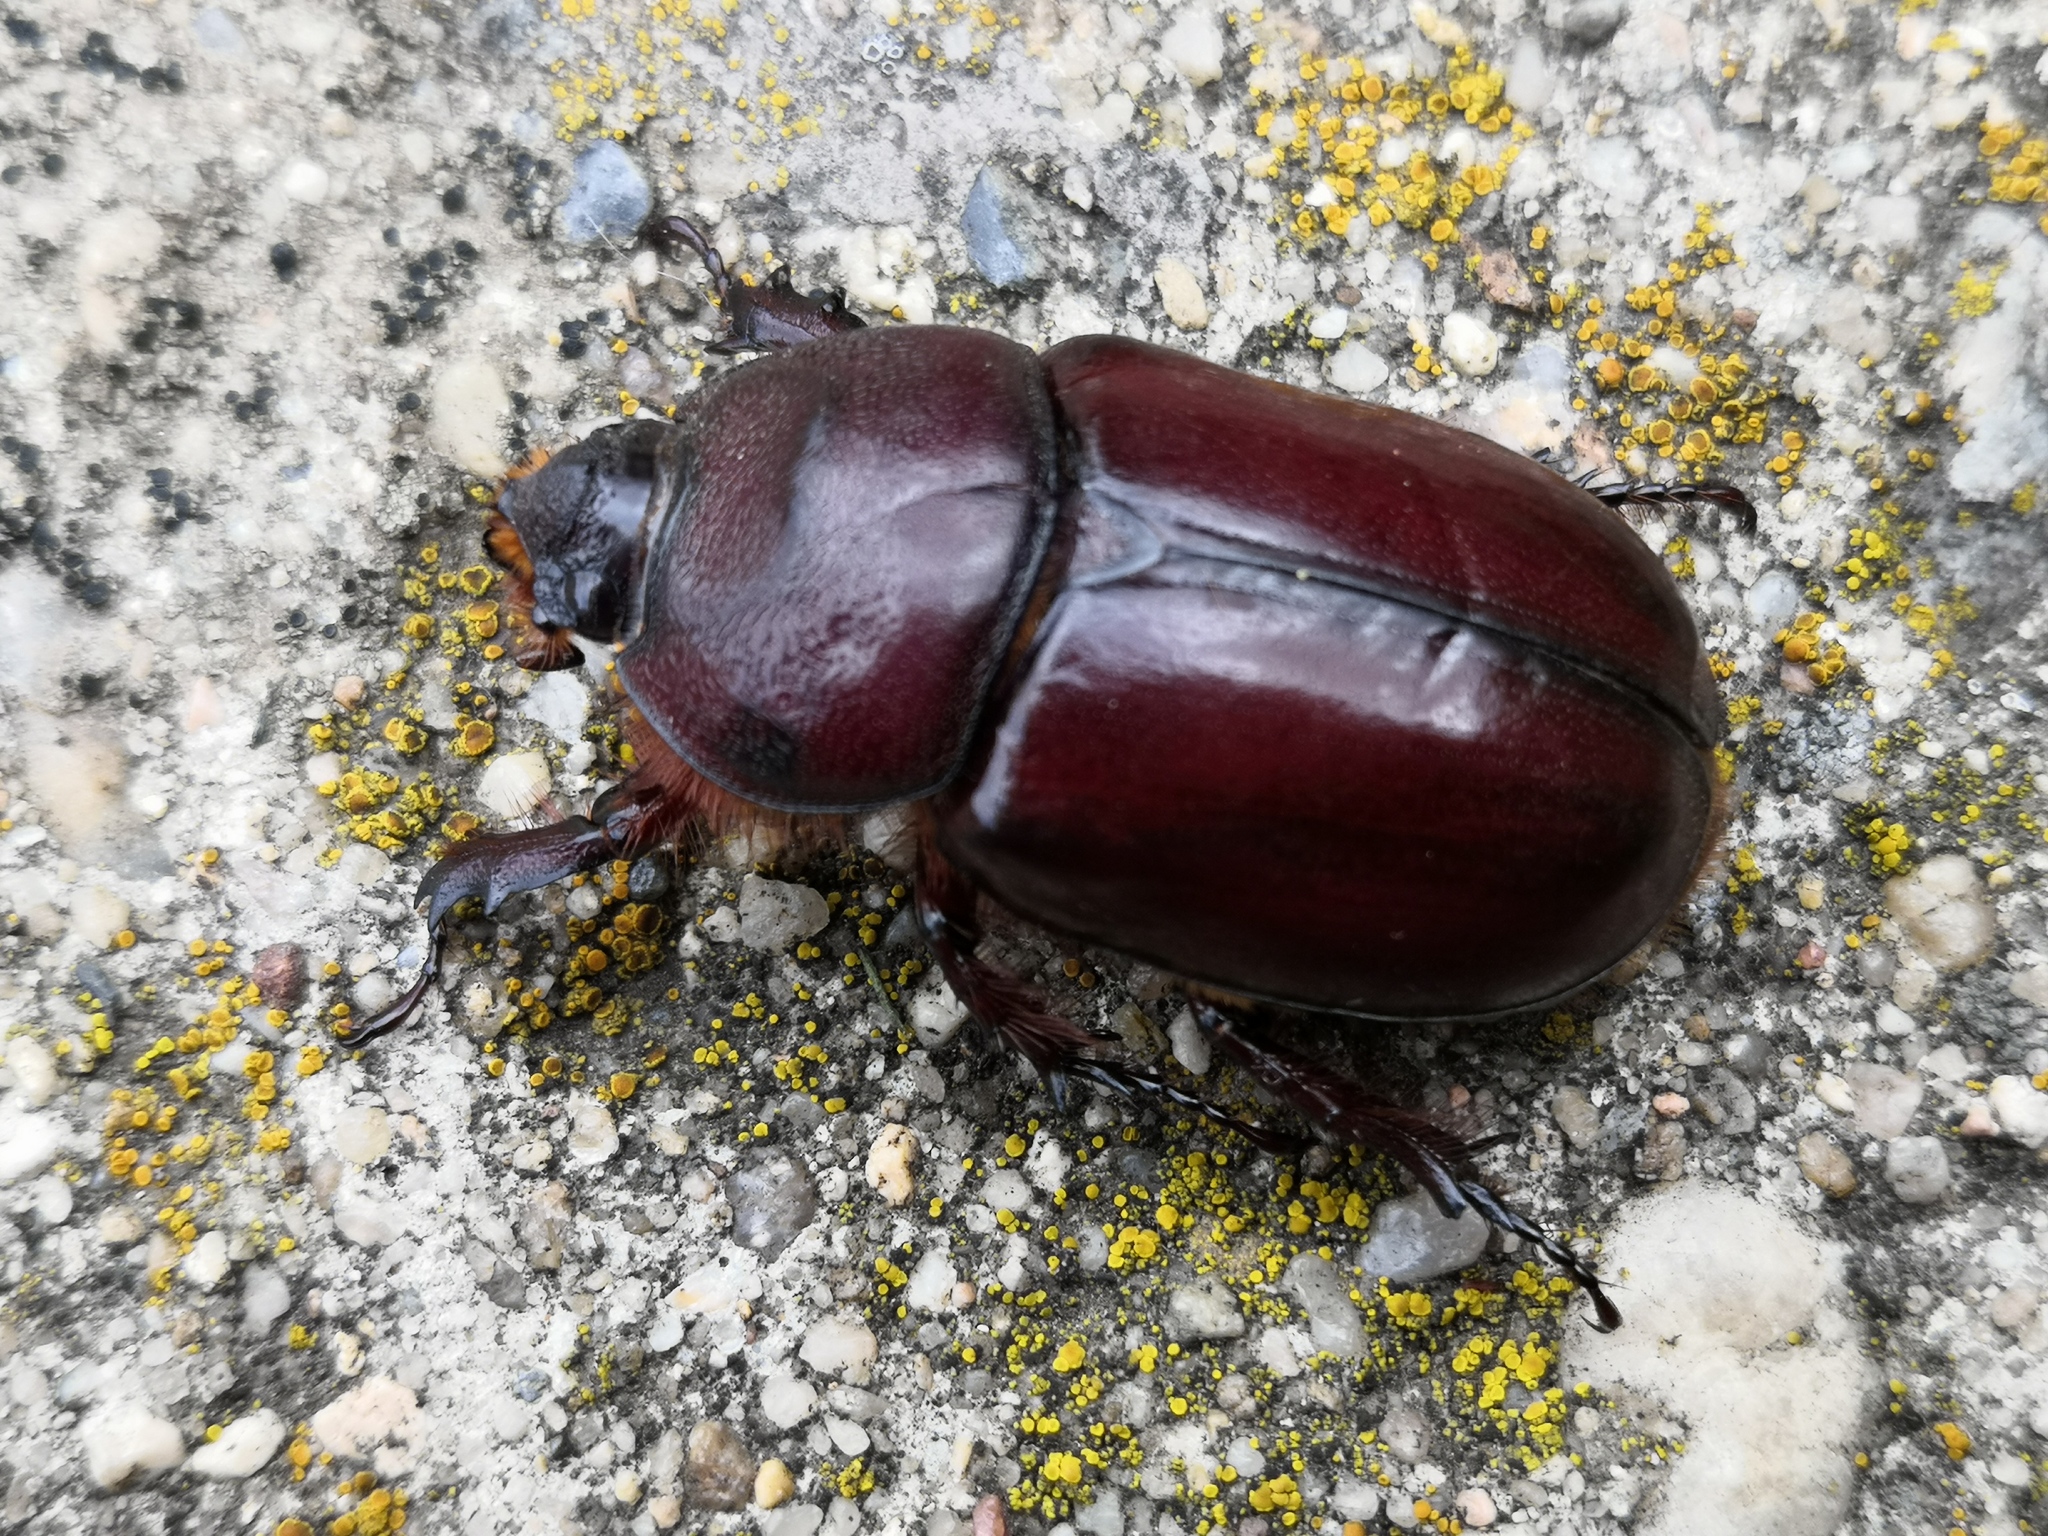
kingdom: Animalia
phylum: Arthropoda
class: Insecta
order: Coleoptera
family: Scarabaeidae
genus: Oryctes
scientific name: Oryctes nasicornis
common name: European rhinoceros beetle
